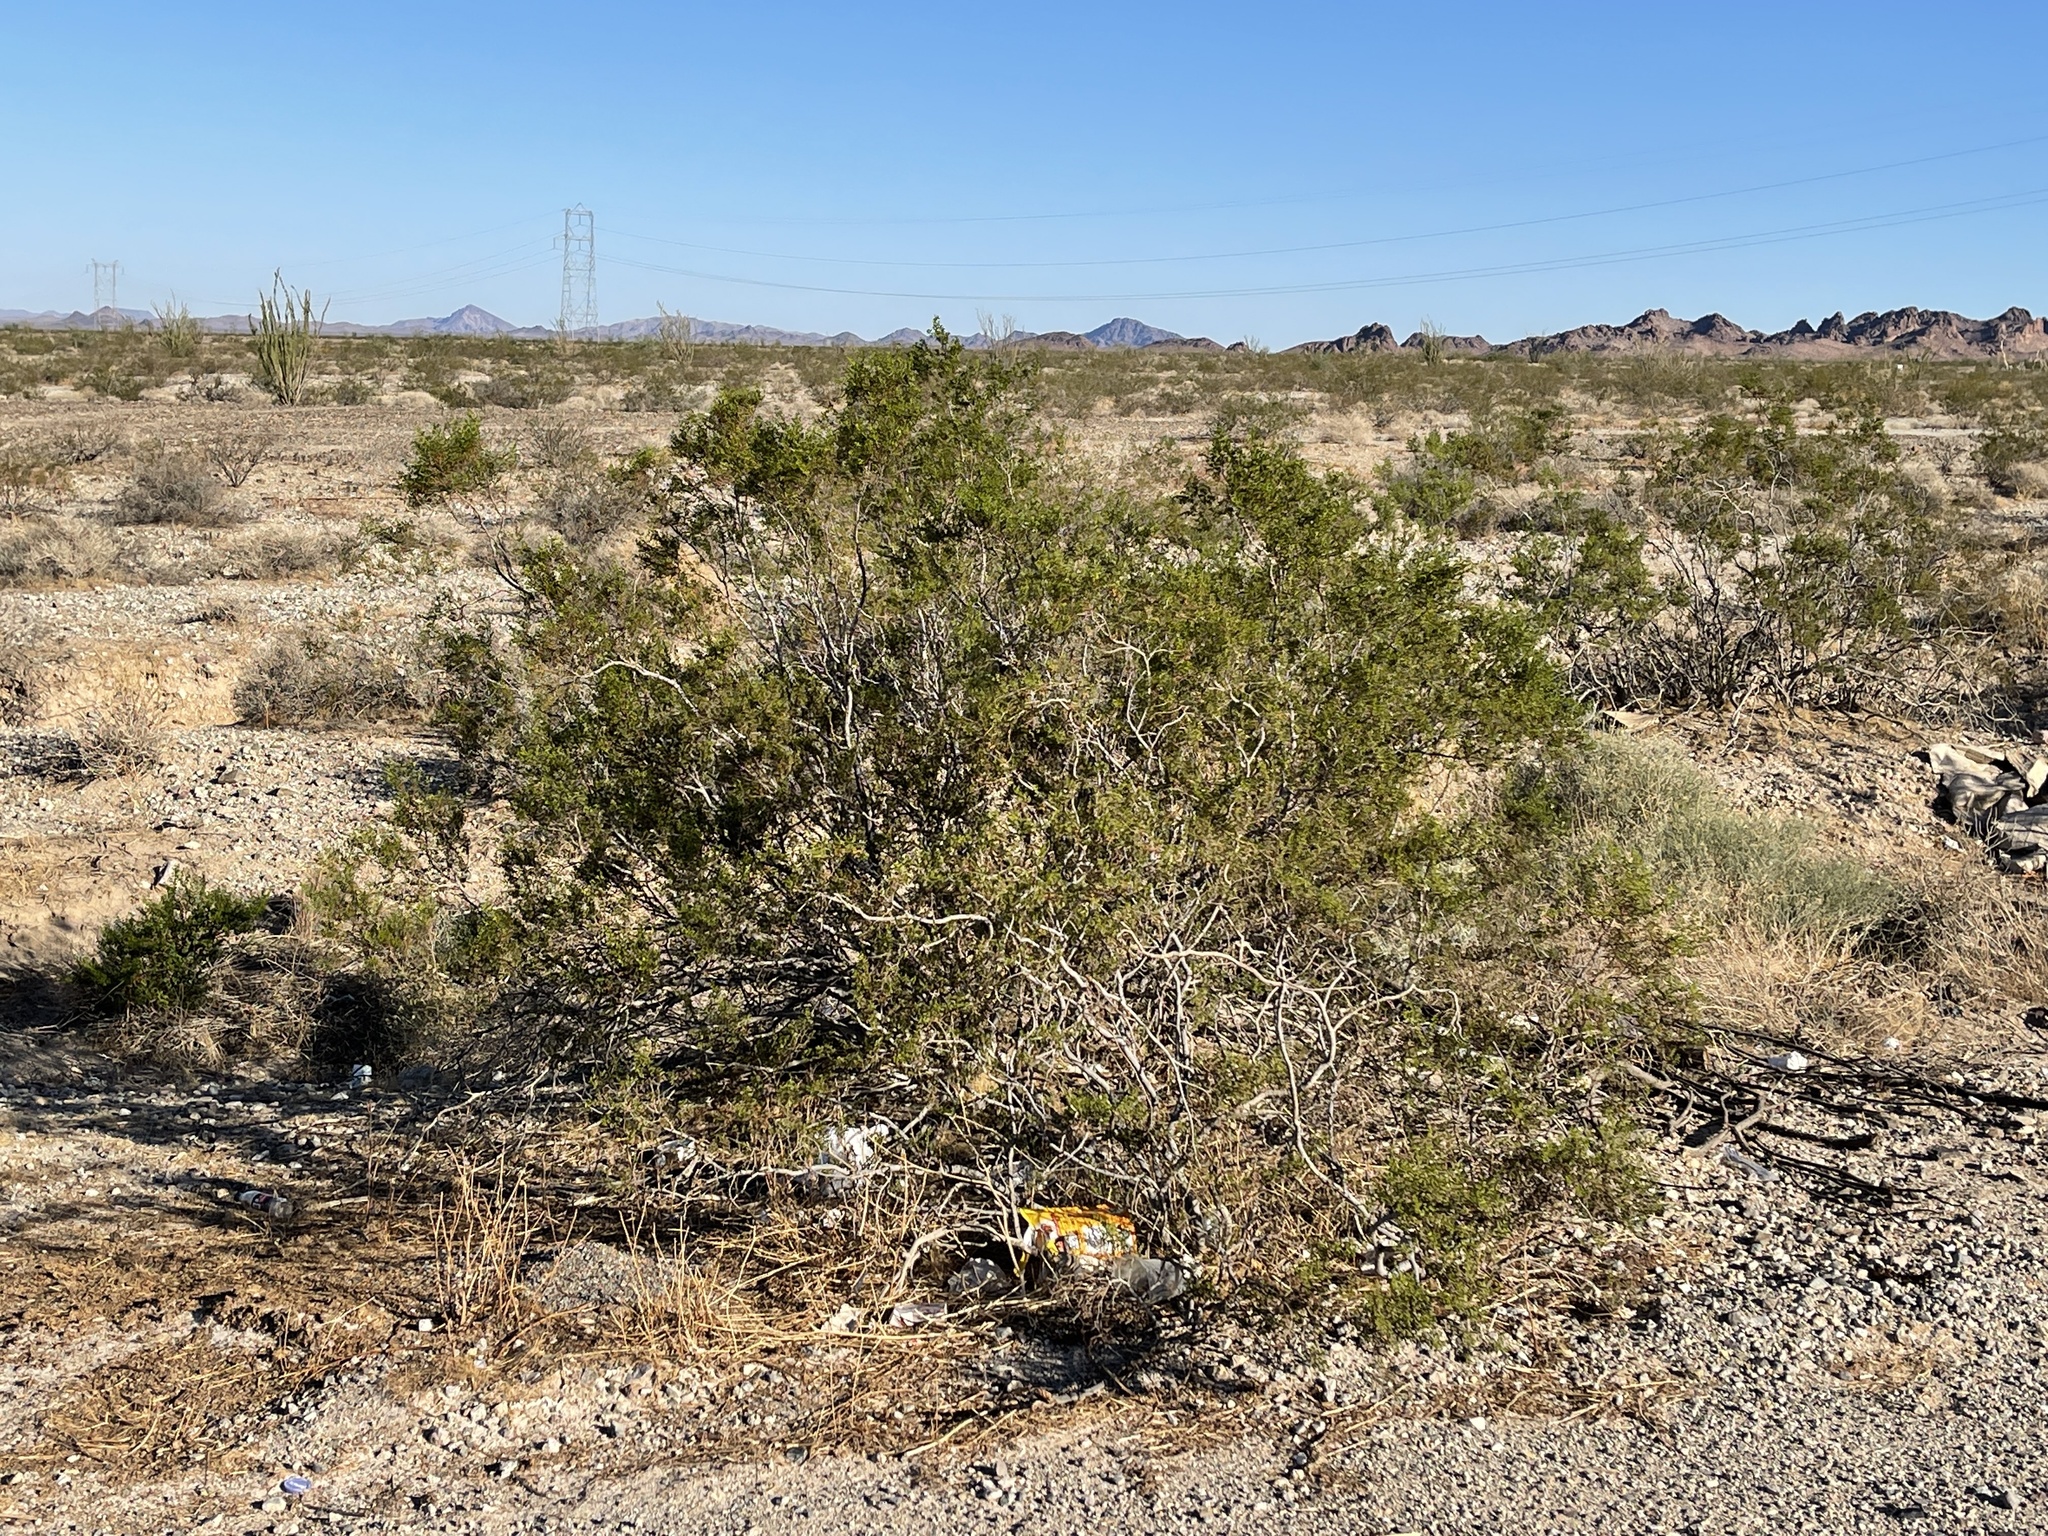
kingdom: Plantae
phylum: Tracheophyta
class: Magnoliopsida
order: Zygophyllales
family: Zygophyllaceae
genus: Larrea
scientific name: Larrea tridentata
